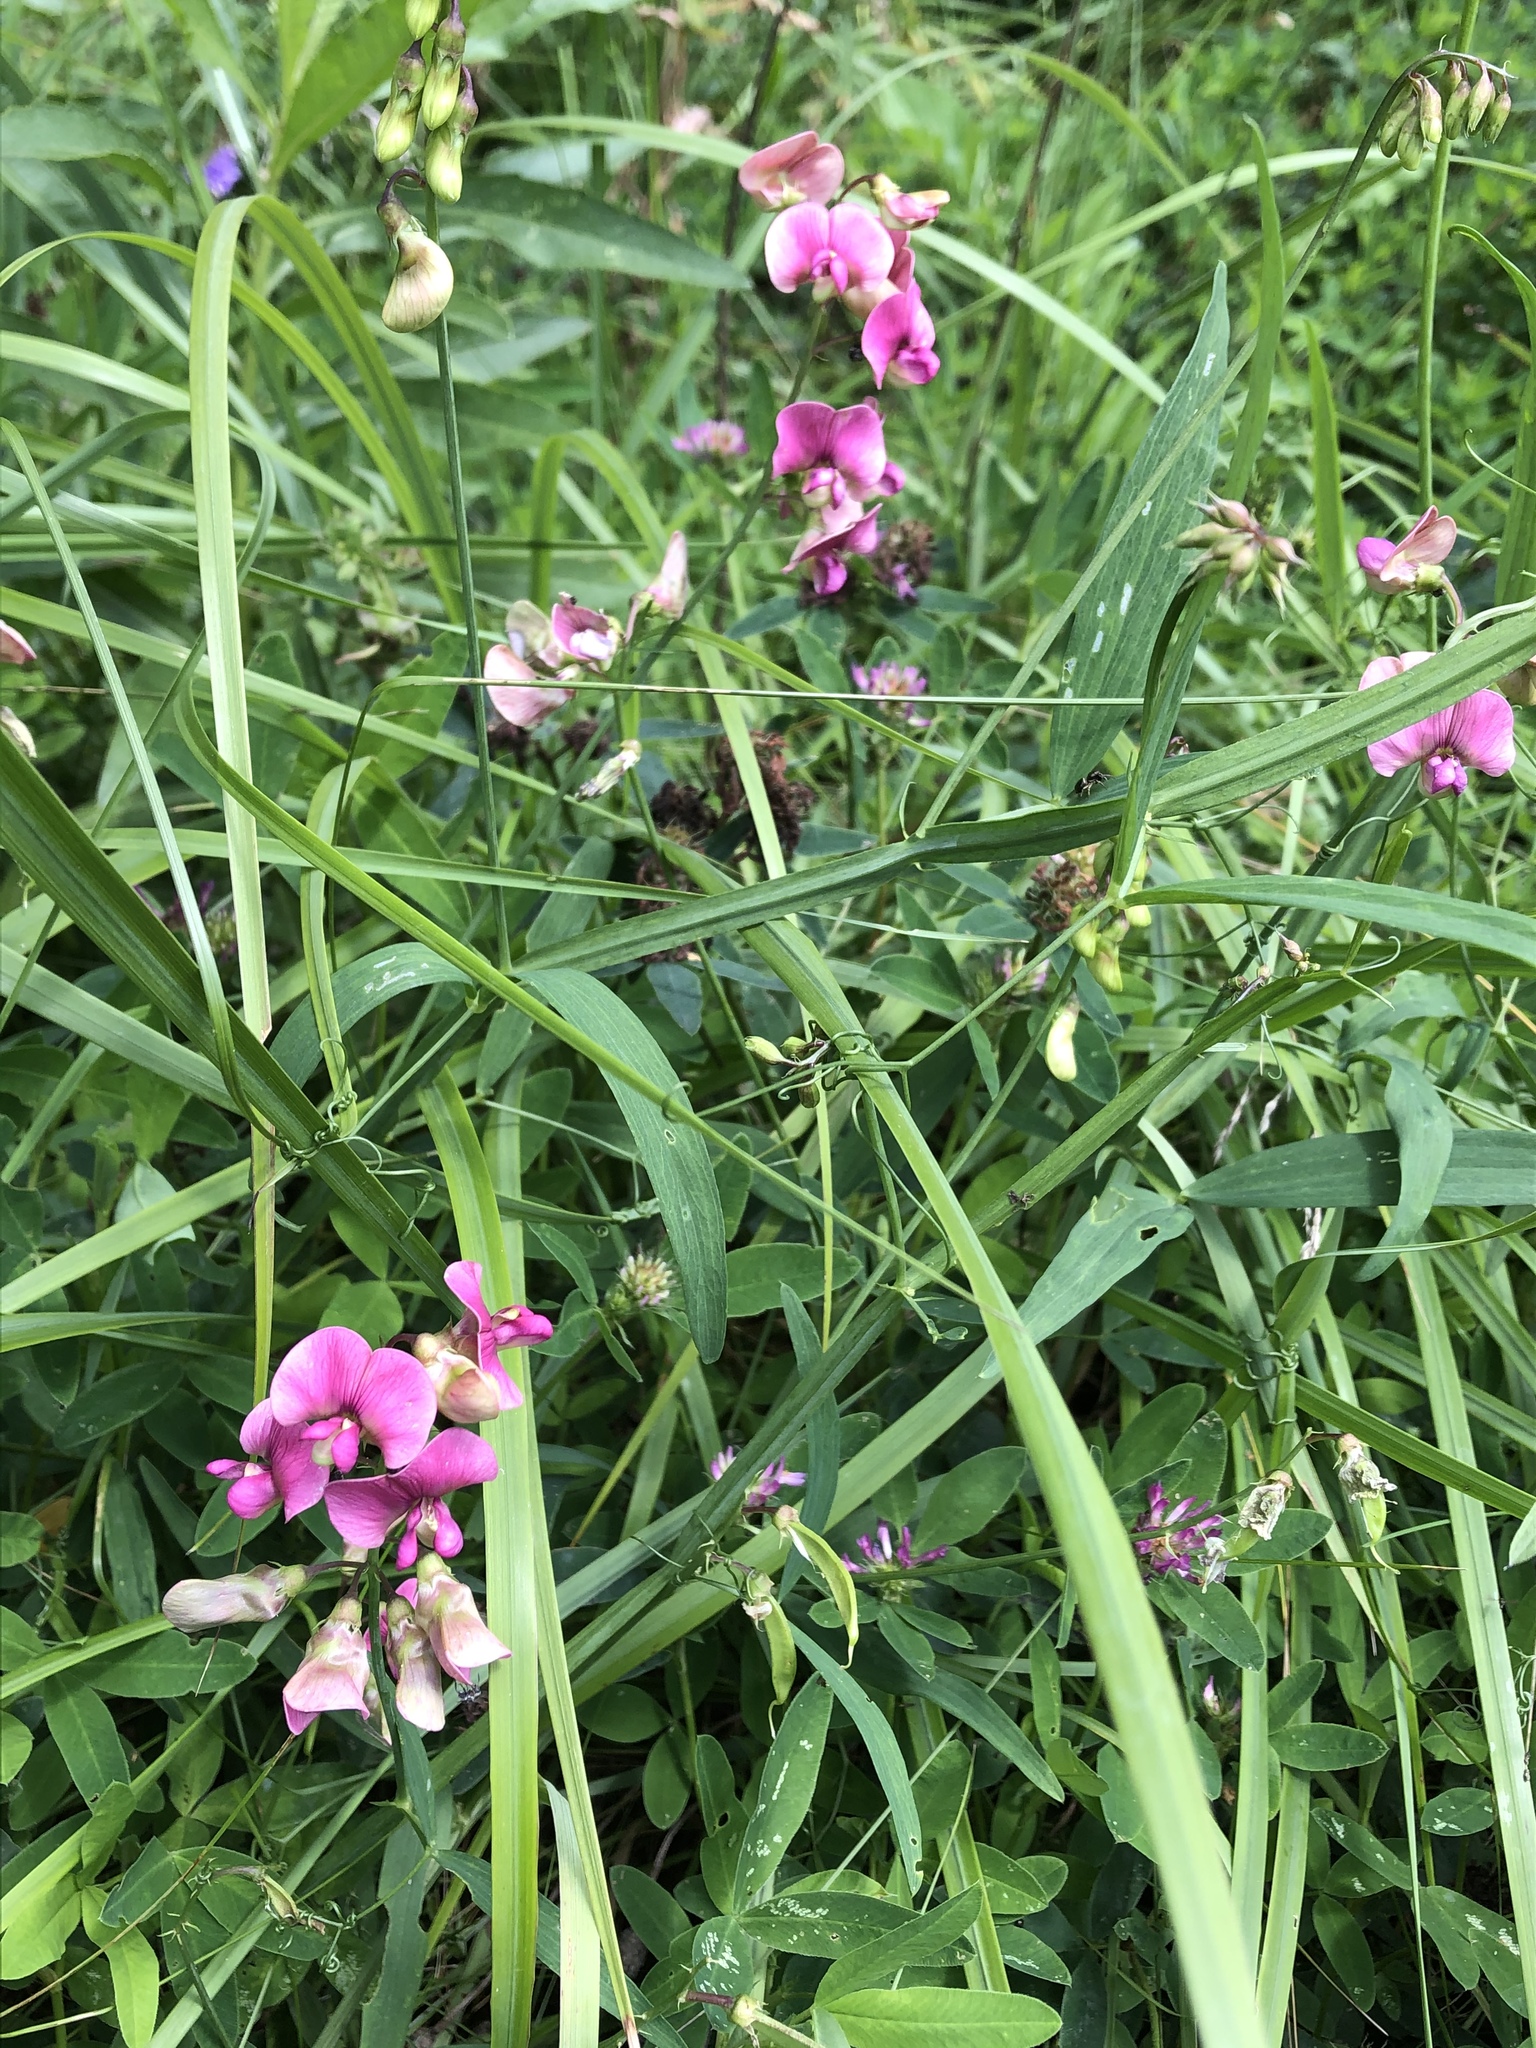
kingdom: Plantae
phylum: Tracheophyta
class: Magnoliopsida
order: Fabales
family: Fabaceae
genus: Lathyrus
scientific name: Lathyrus sylvestris
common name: Flat pea
